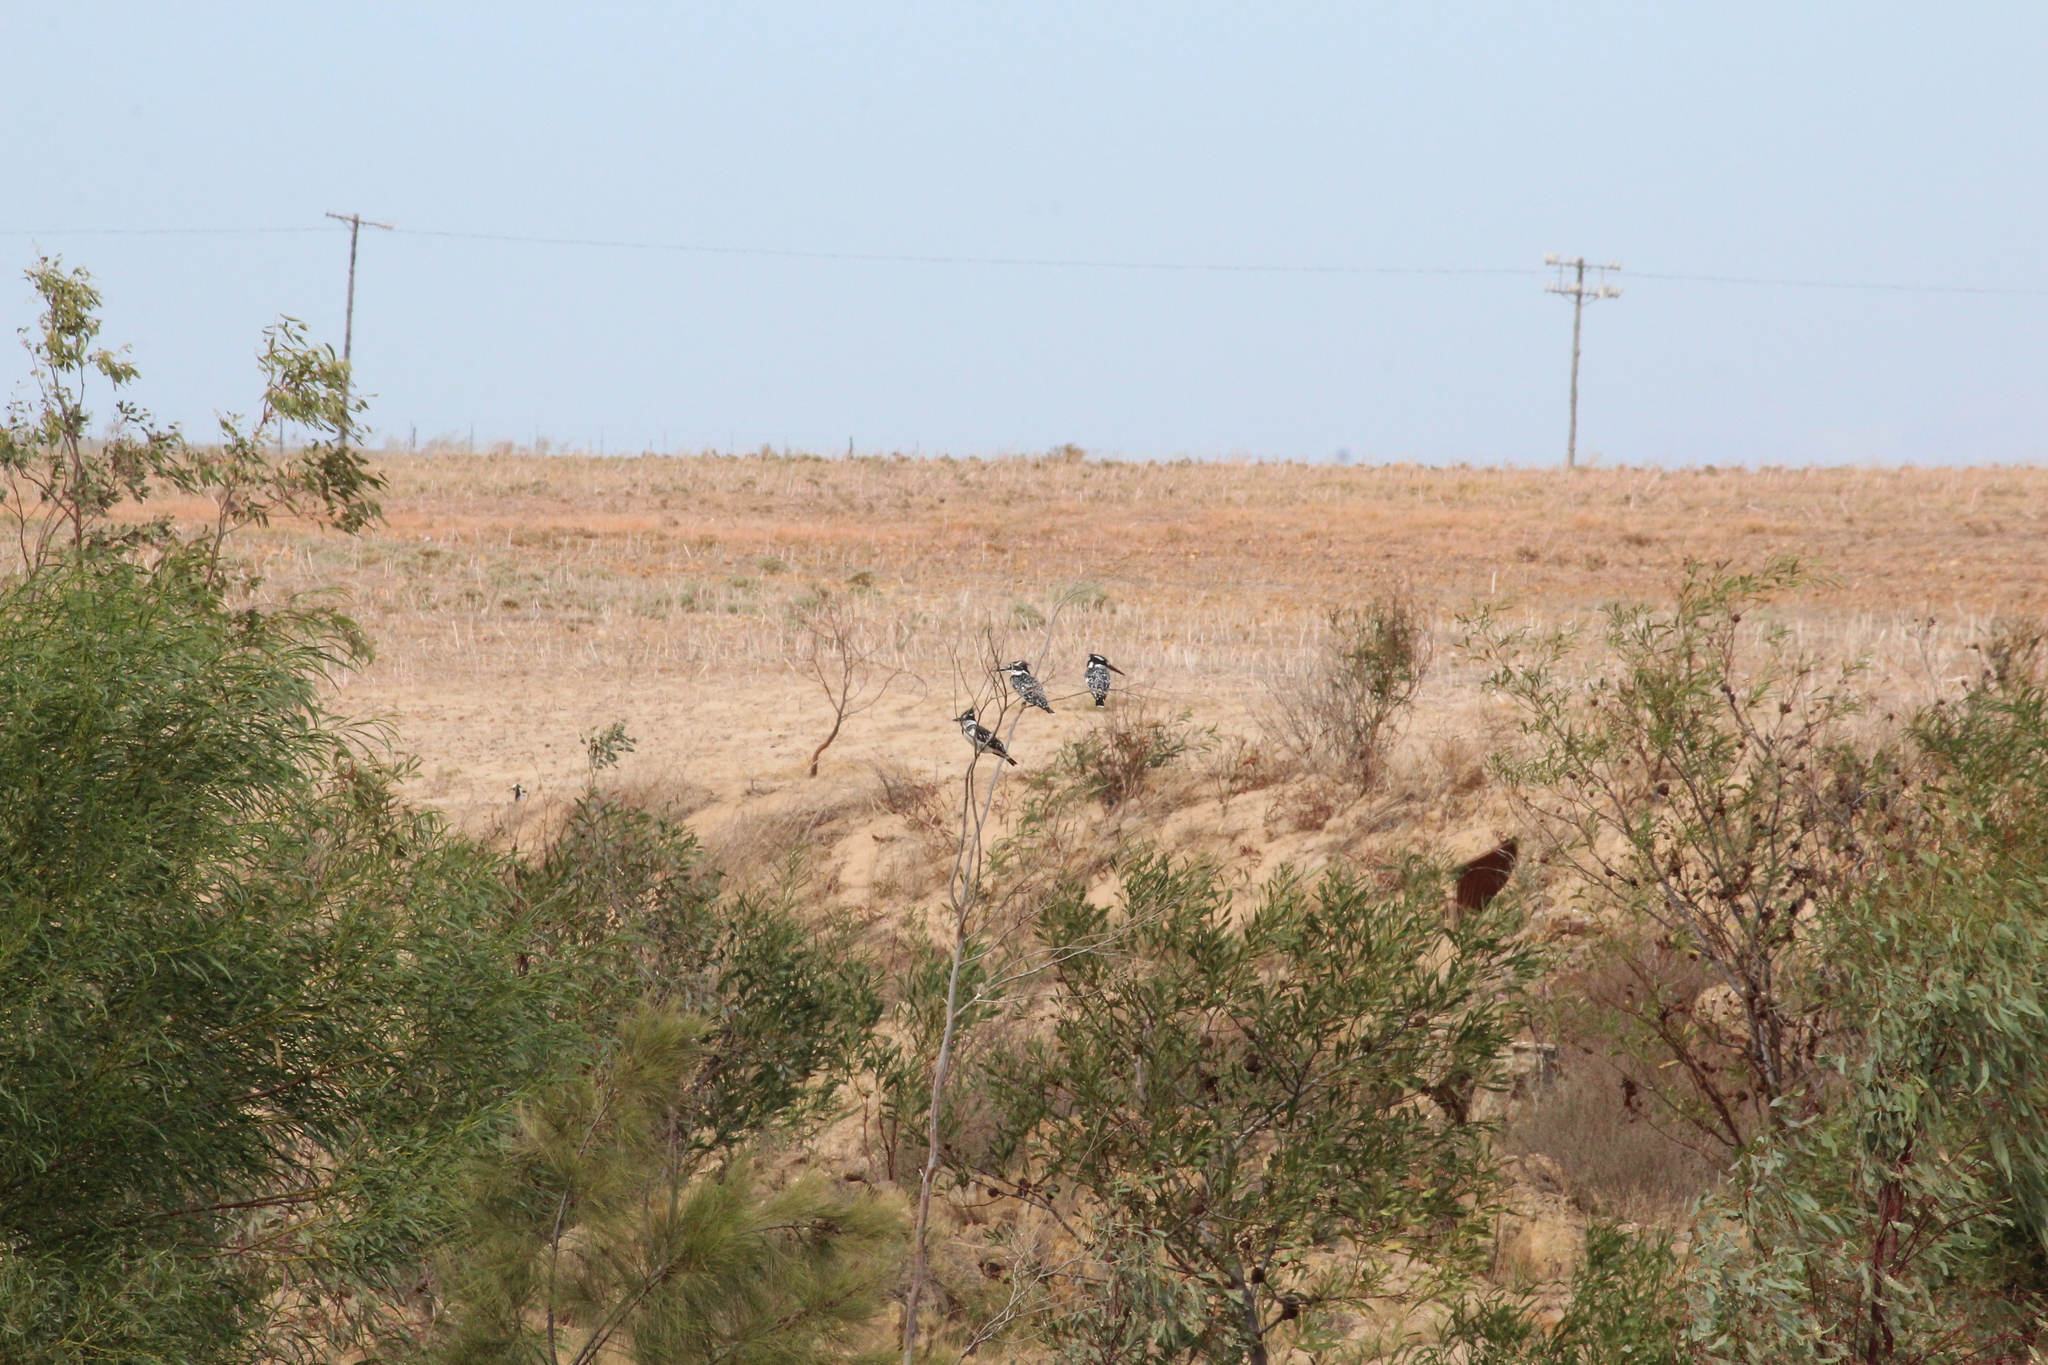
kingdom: Animalia
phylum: Chordata
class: Aves
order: Coraciiformes
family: Alcedinidae
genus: Ceryle
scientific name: Ceryle rudis
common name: Pied kingfisher
